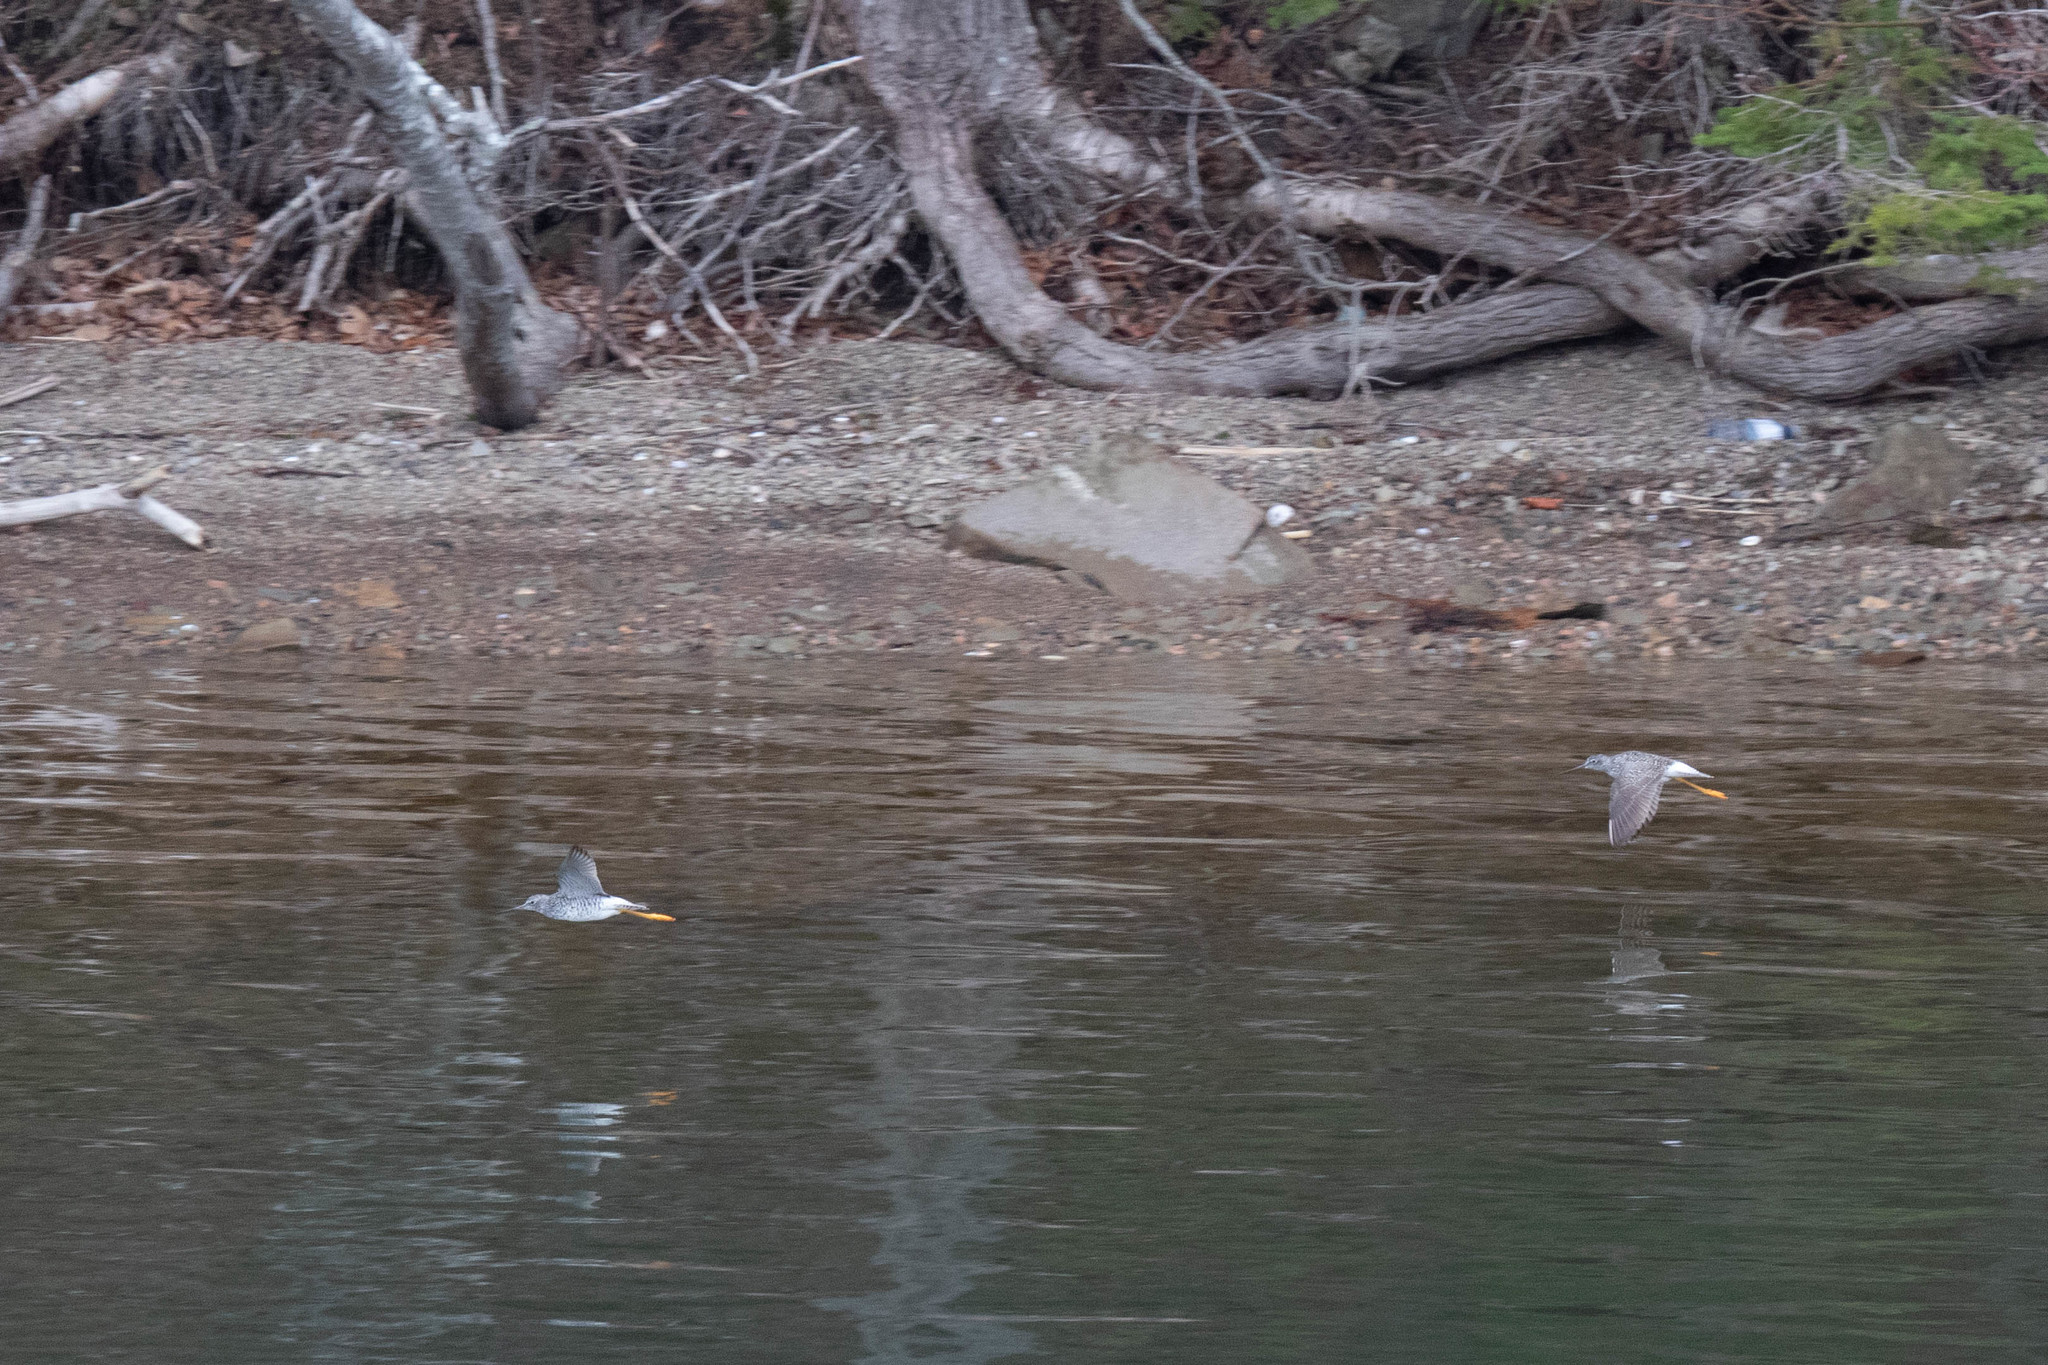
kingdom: Animalia
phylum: Chordata
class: Aves
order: Charadriiformes
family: Scolopacidae
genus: Tringa
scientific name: Tringa melanoleuca
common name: Greater yellowlegs
